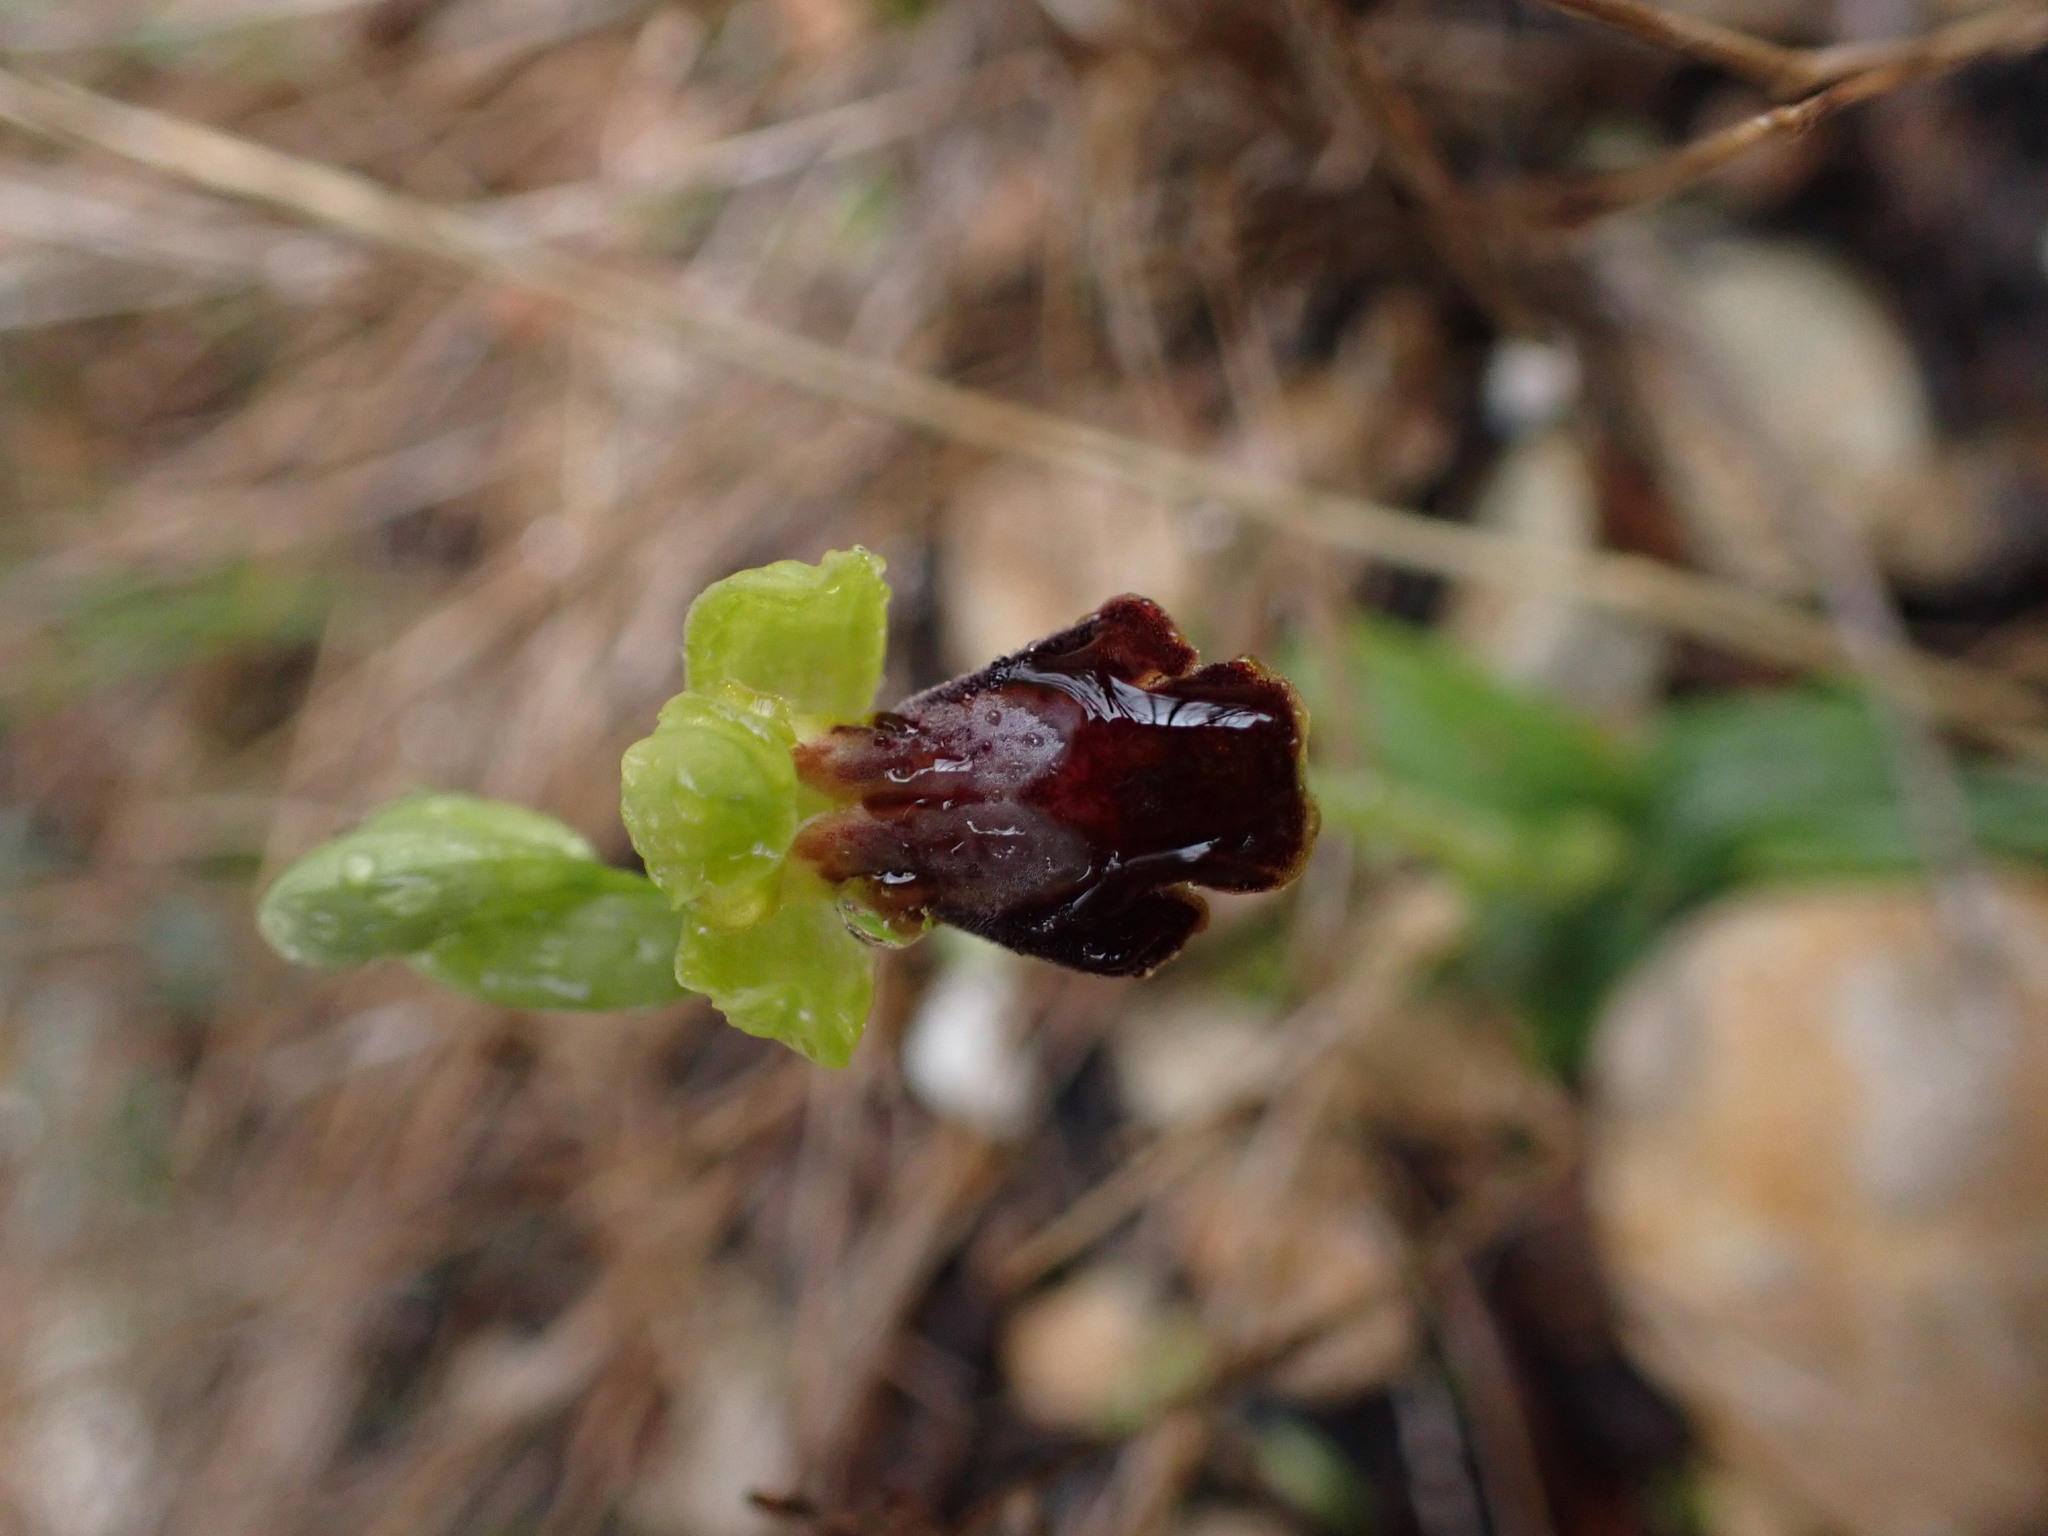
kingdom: Plantae
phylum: Tracheophyta
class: Liliopsida
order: Asparagales
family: Orchidaceae
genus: Ophrys
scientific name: Ophrys fusca
